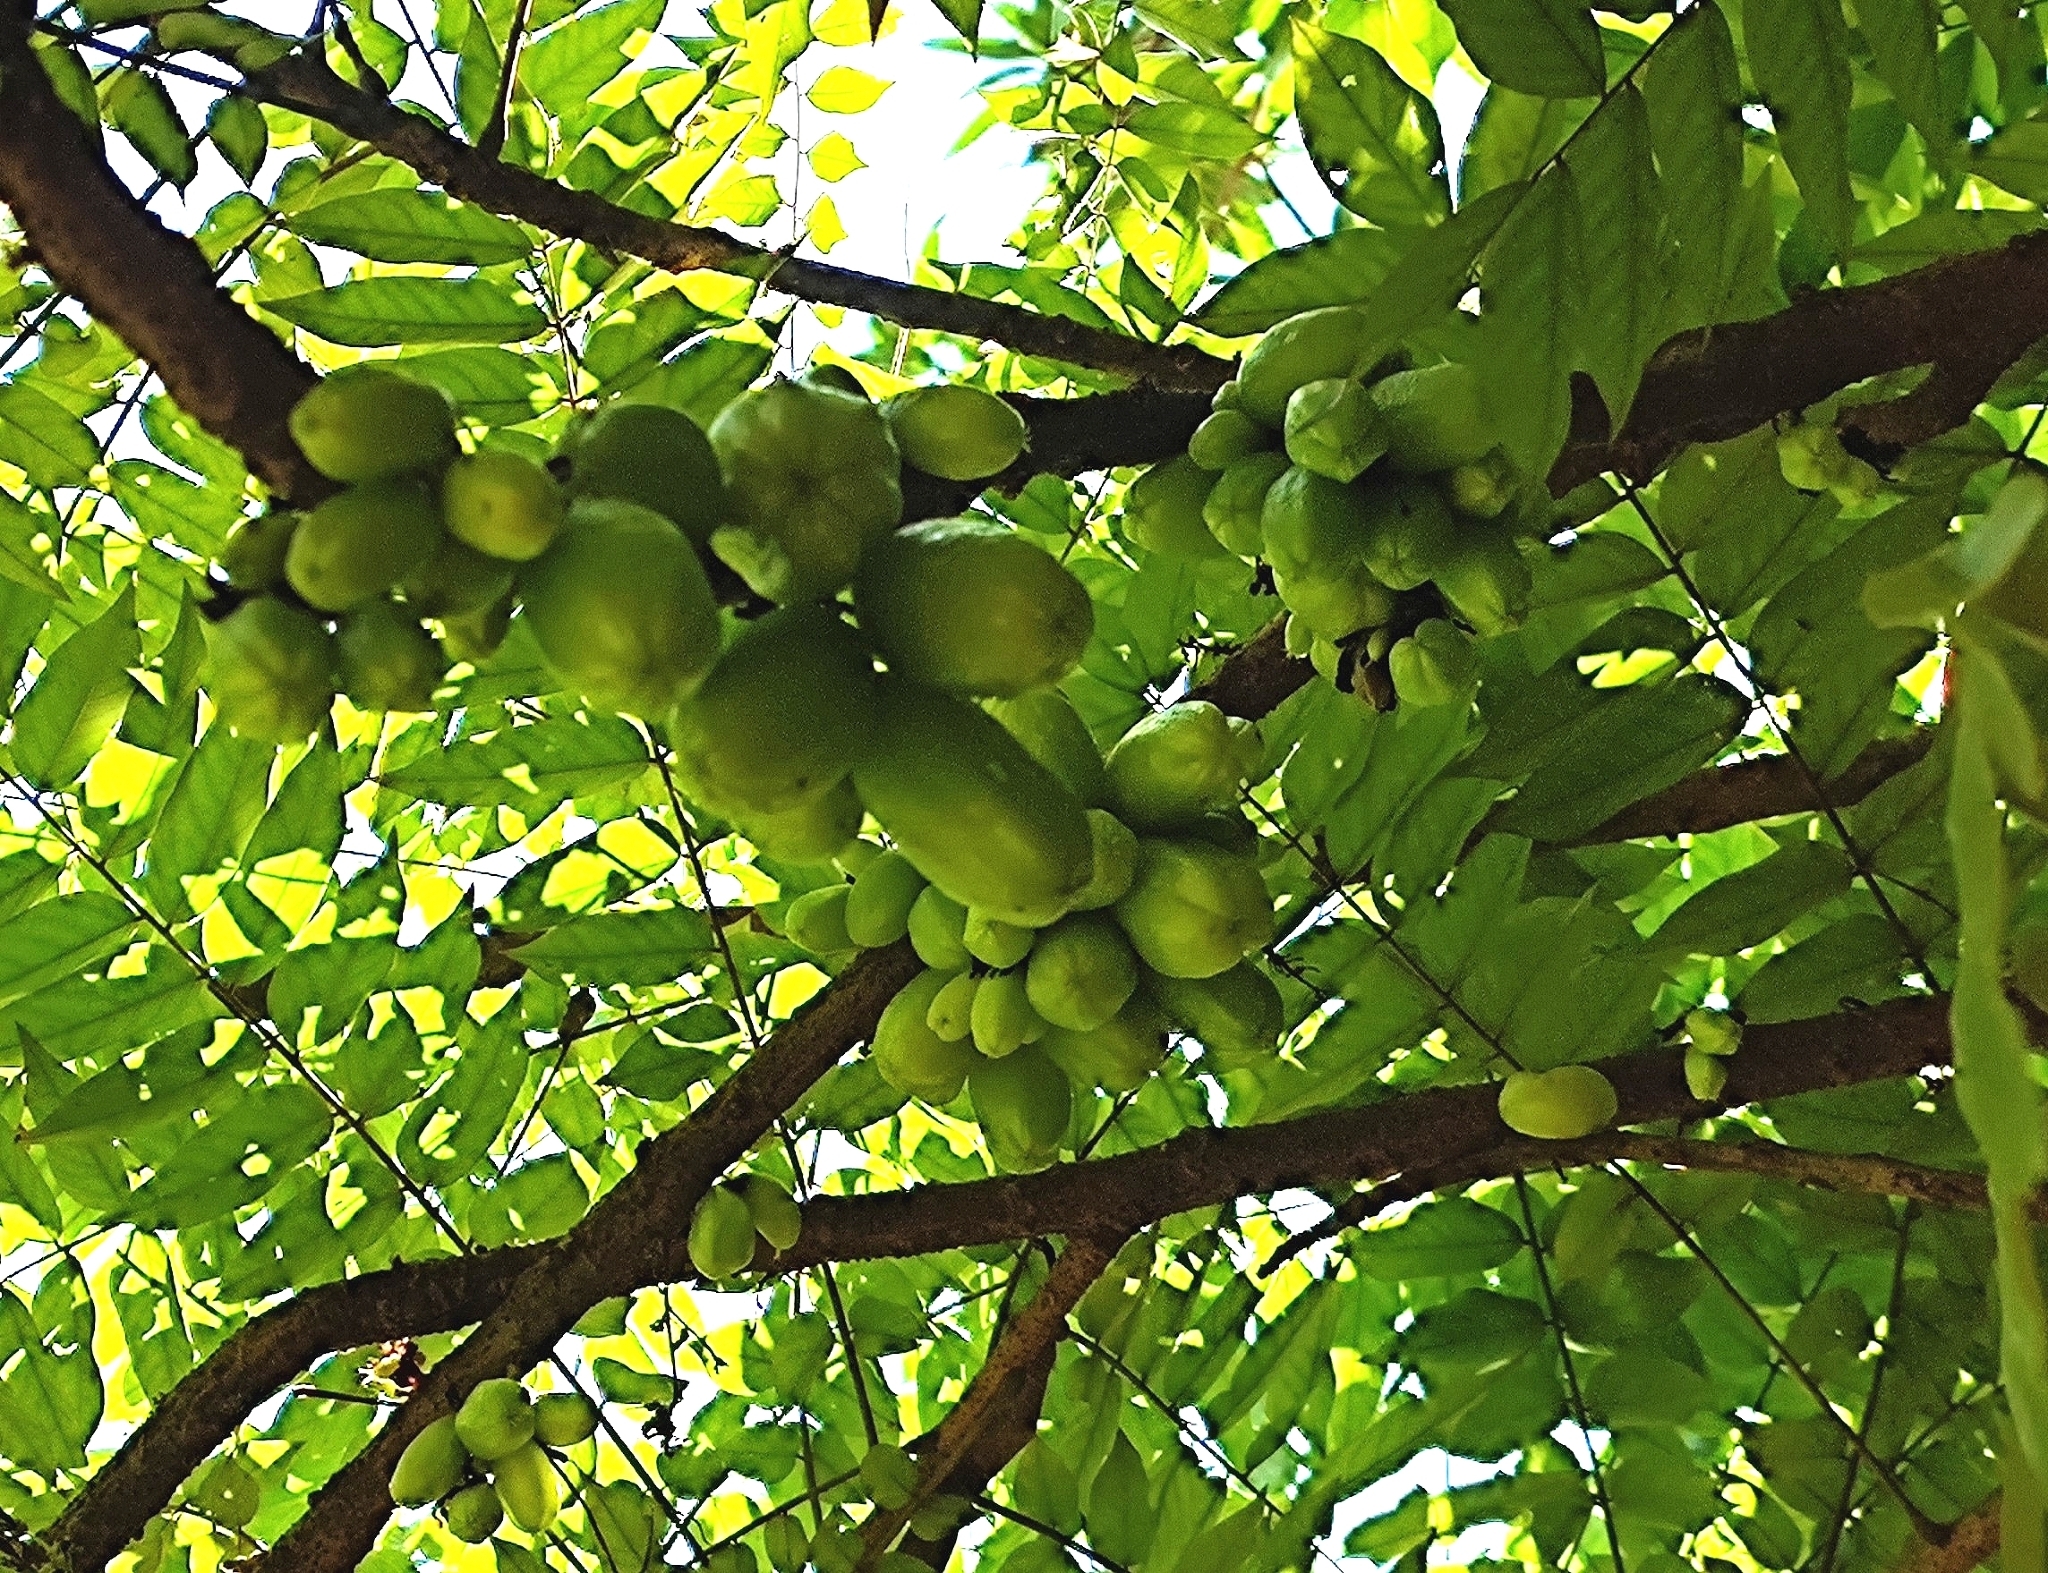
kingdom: Plantae
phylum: Tracheophyta
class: Magnoliopsida
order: Oxalidales
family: Oxalidaceae
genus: Averrhoa
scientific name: Averrhoa bilimbi
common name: Bilimbi
